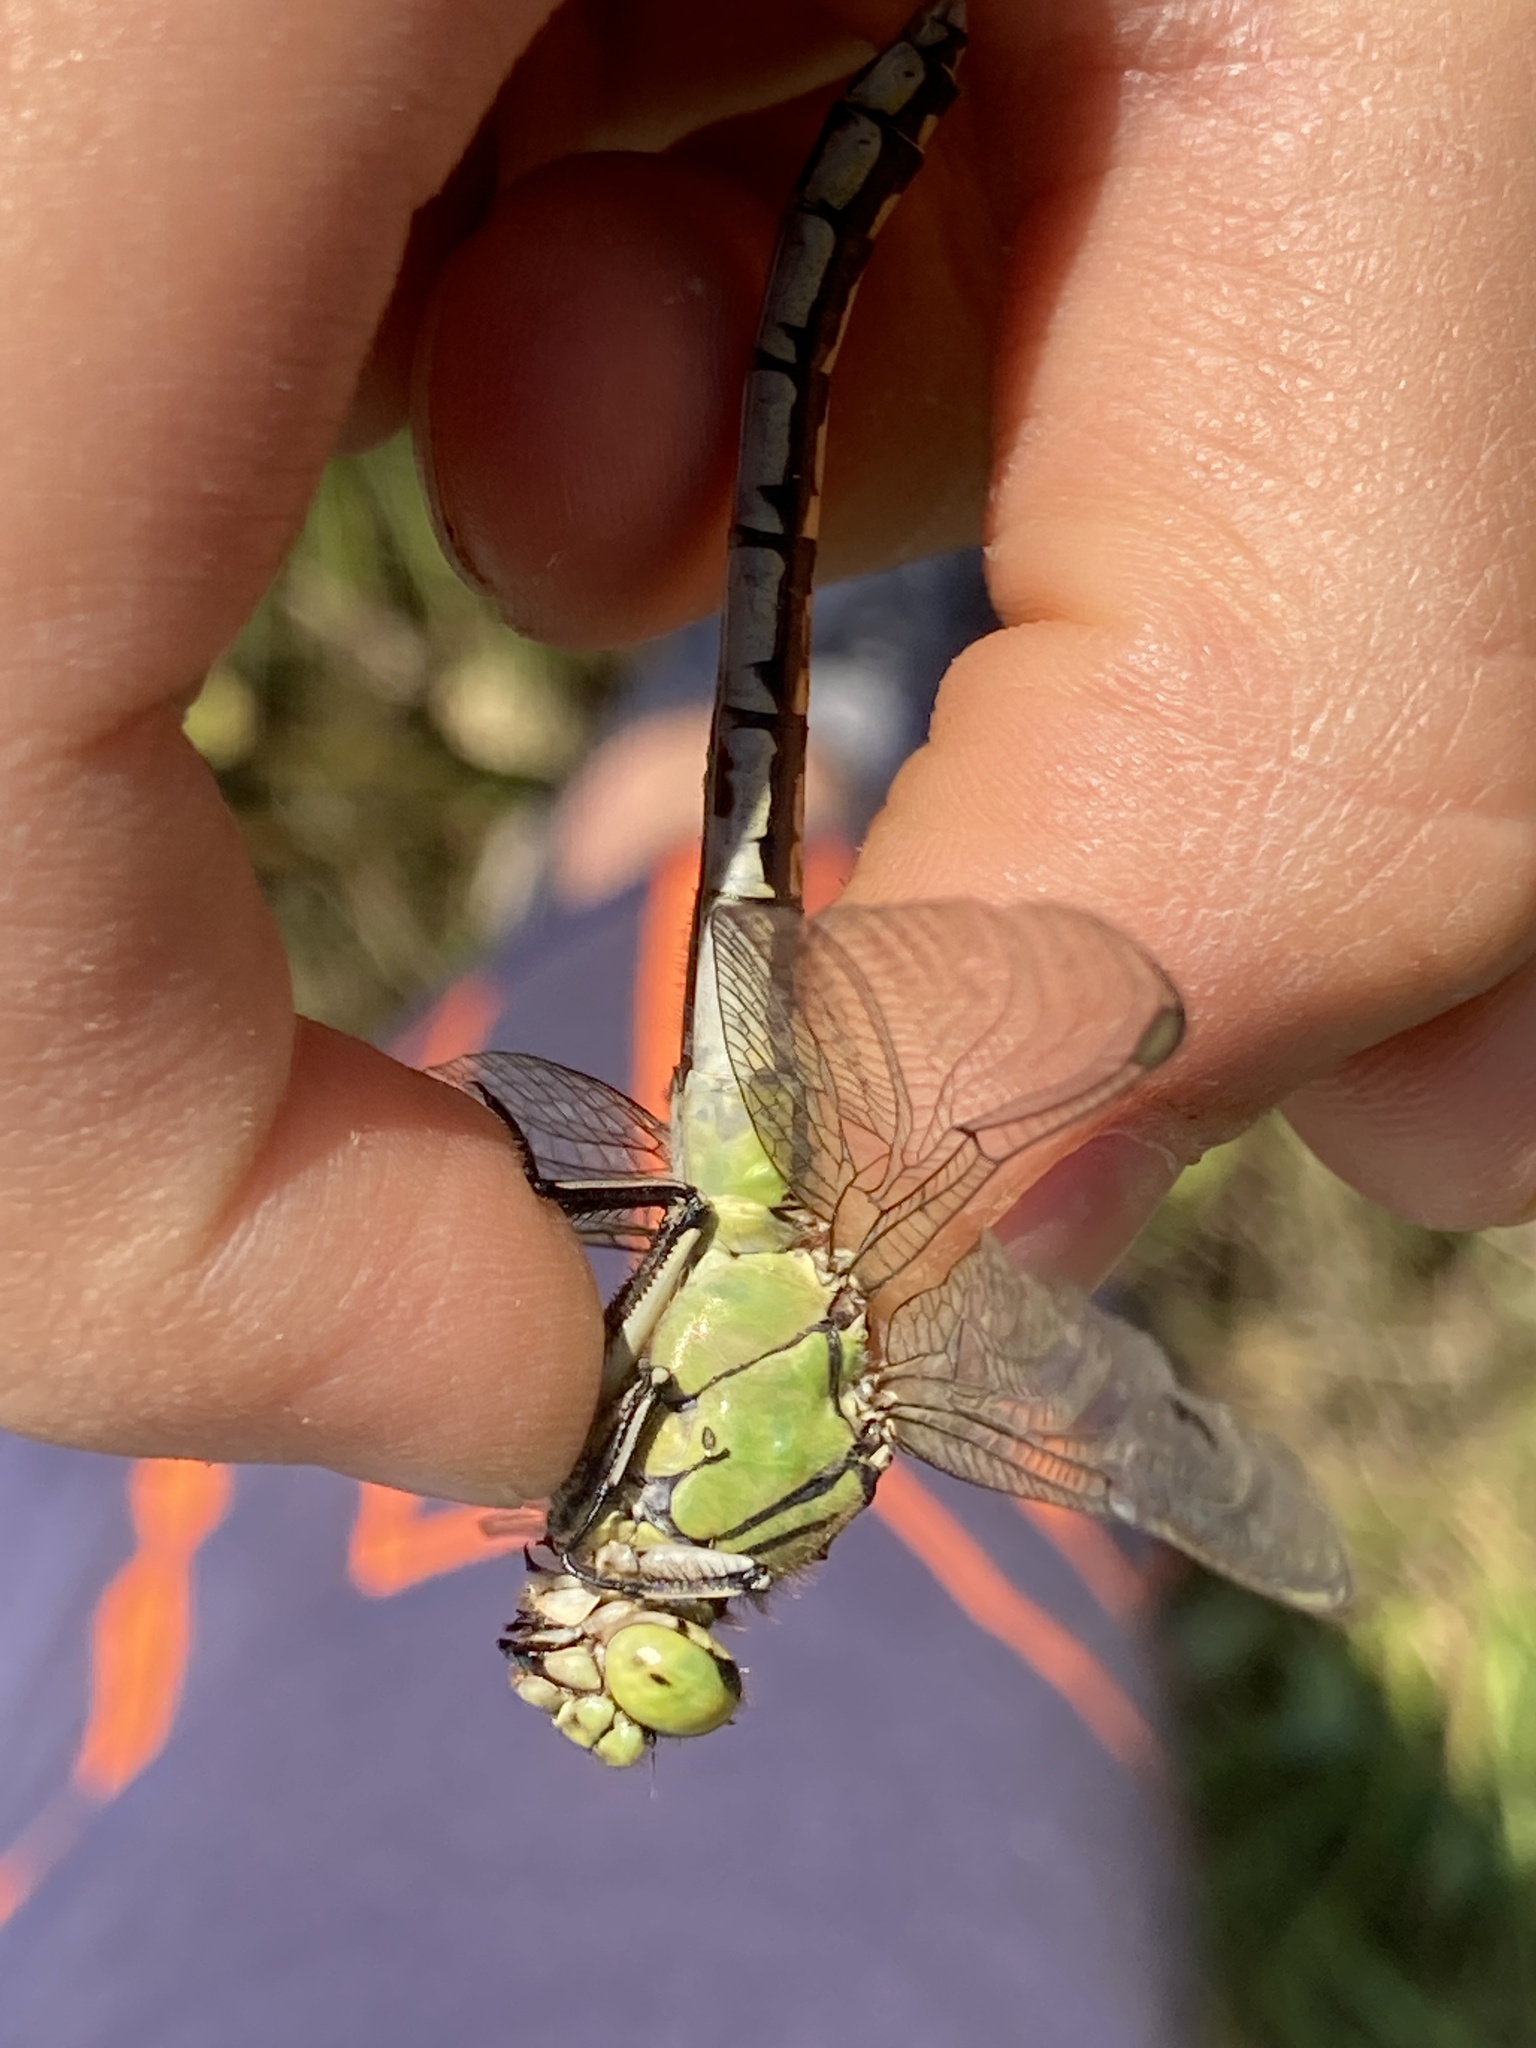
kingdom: Animalia
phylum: Arthropoda
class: Insecta
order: Odonata
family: Gomphidae
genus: Ophiogomphus
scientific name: Ophiogomphus cecilia
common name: Green snaketail
